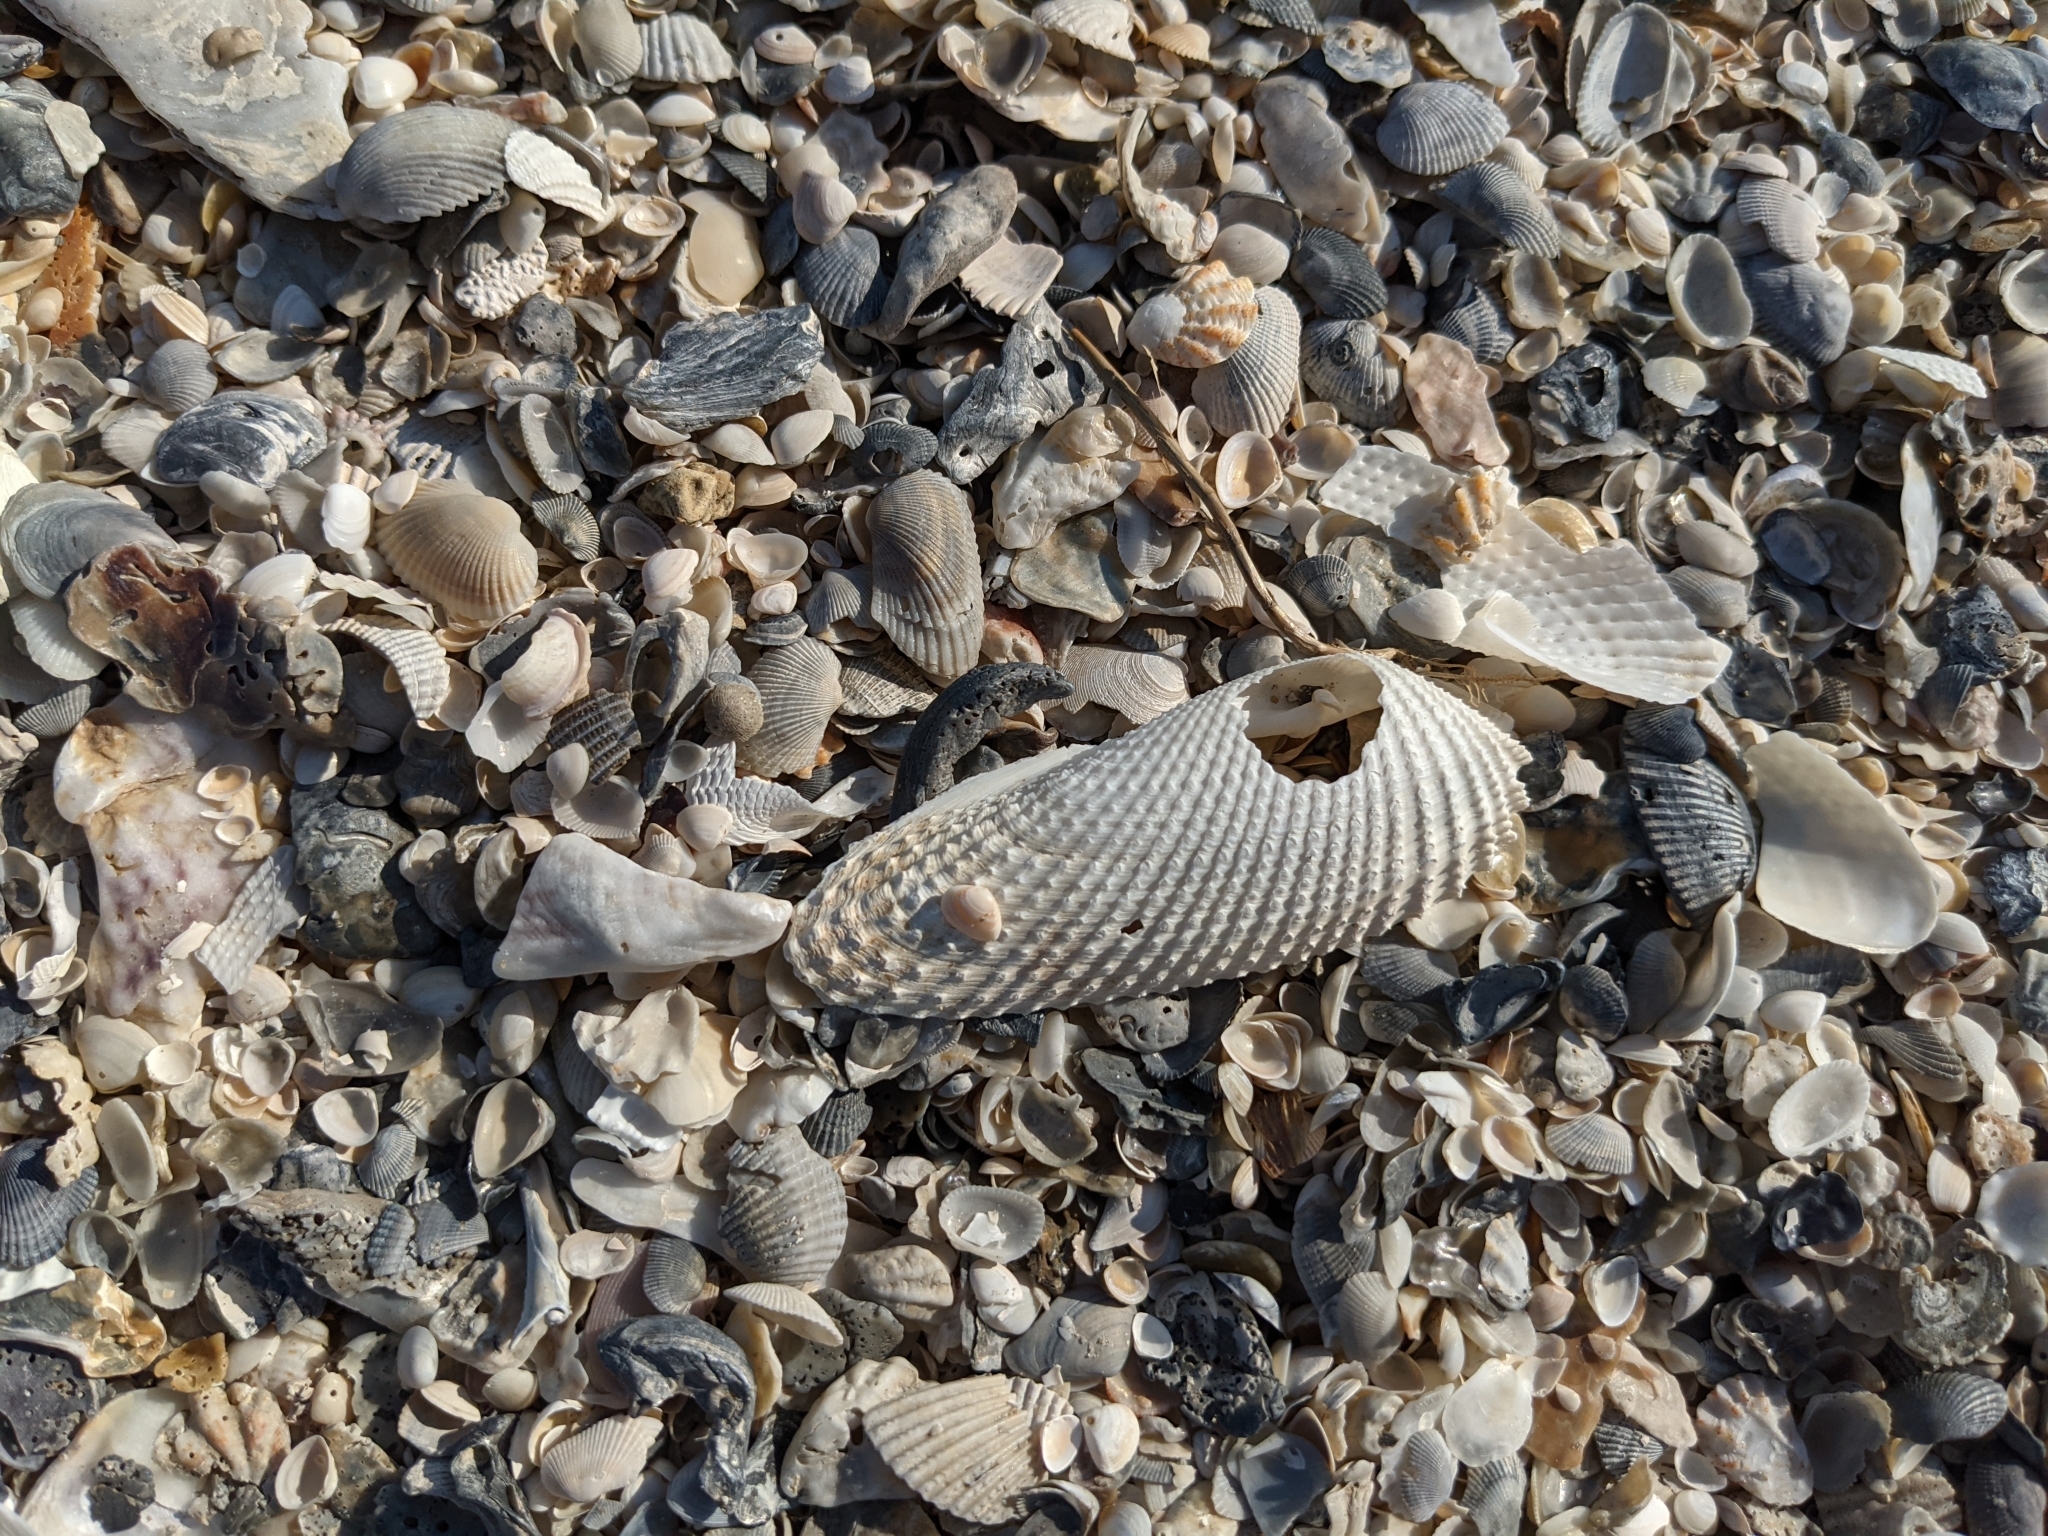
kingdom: Animalia
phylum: Mollusca
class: Bivalvia
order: Myida
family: Pholadidae
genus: Cyrtopleura
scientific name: Cyrtopleura costata
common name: Angel wing
